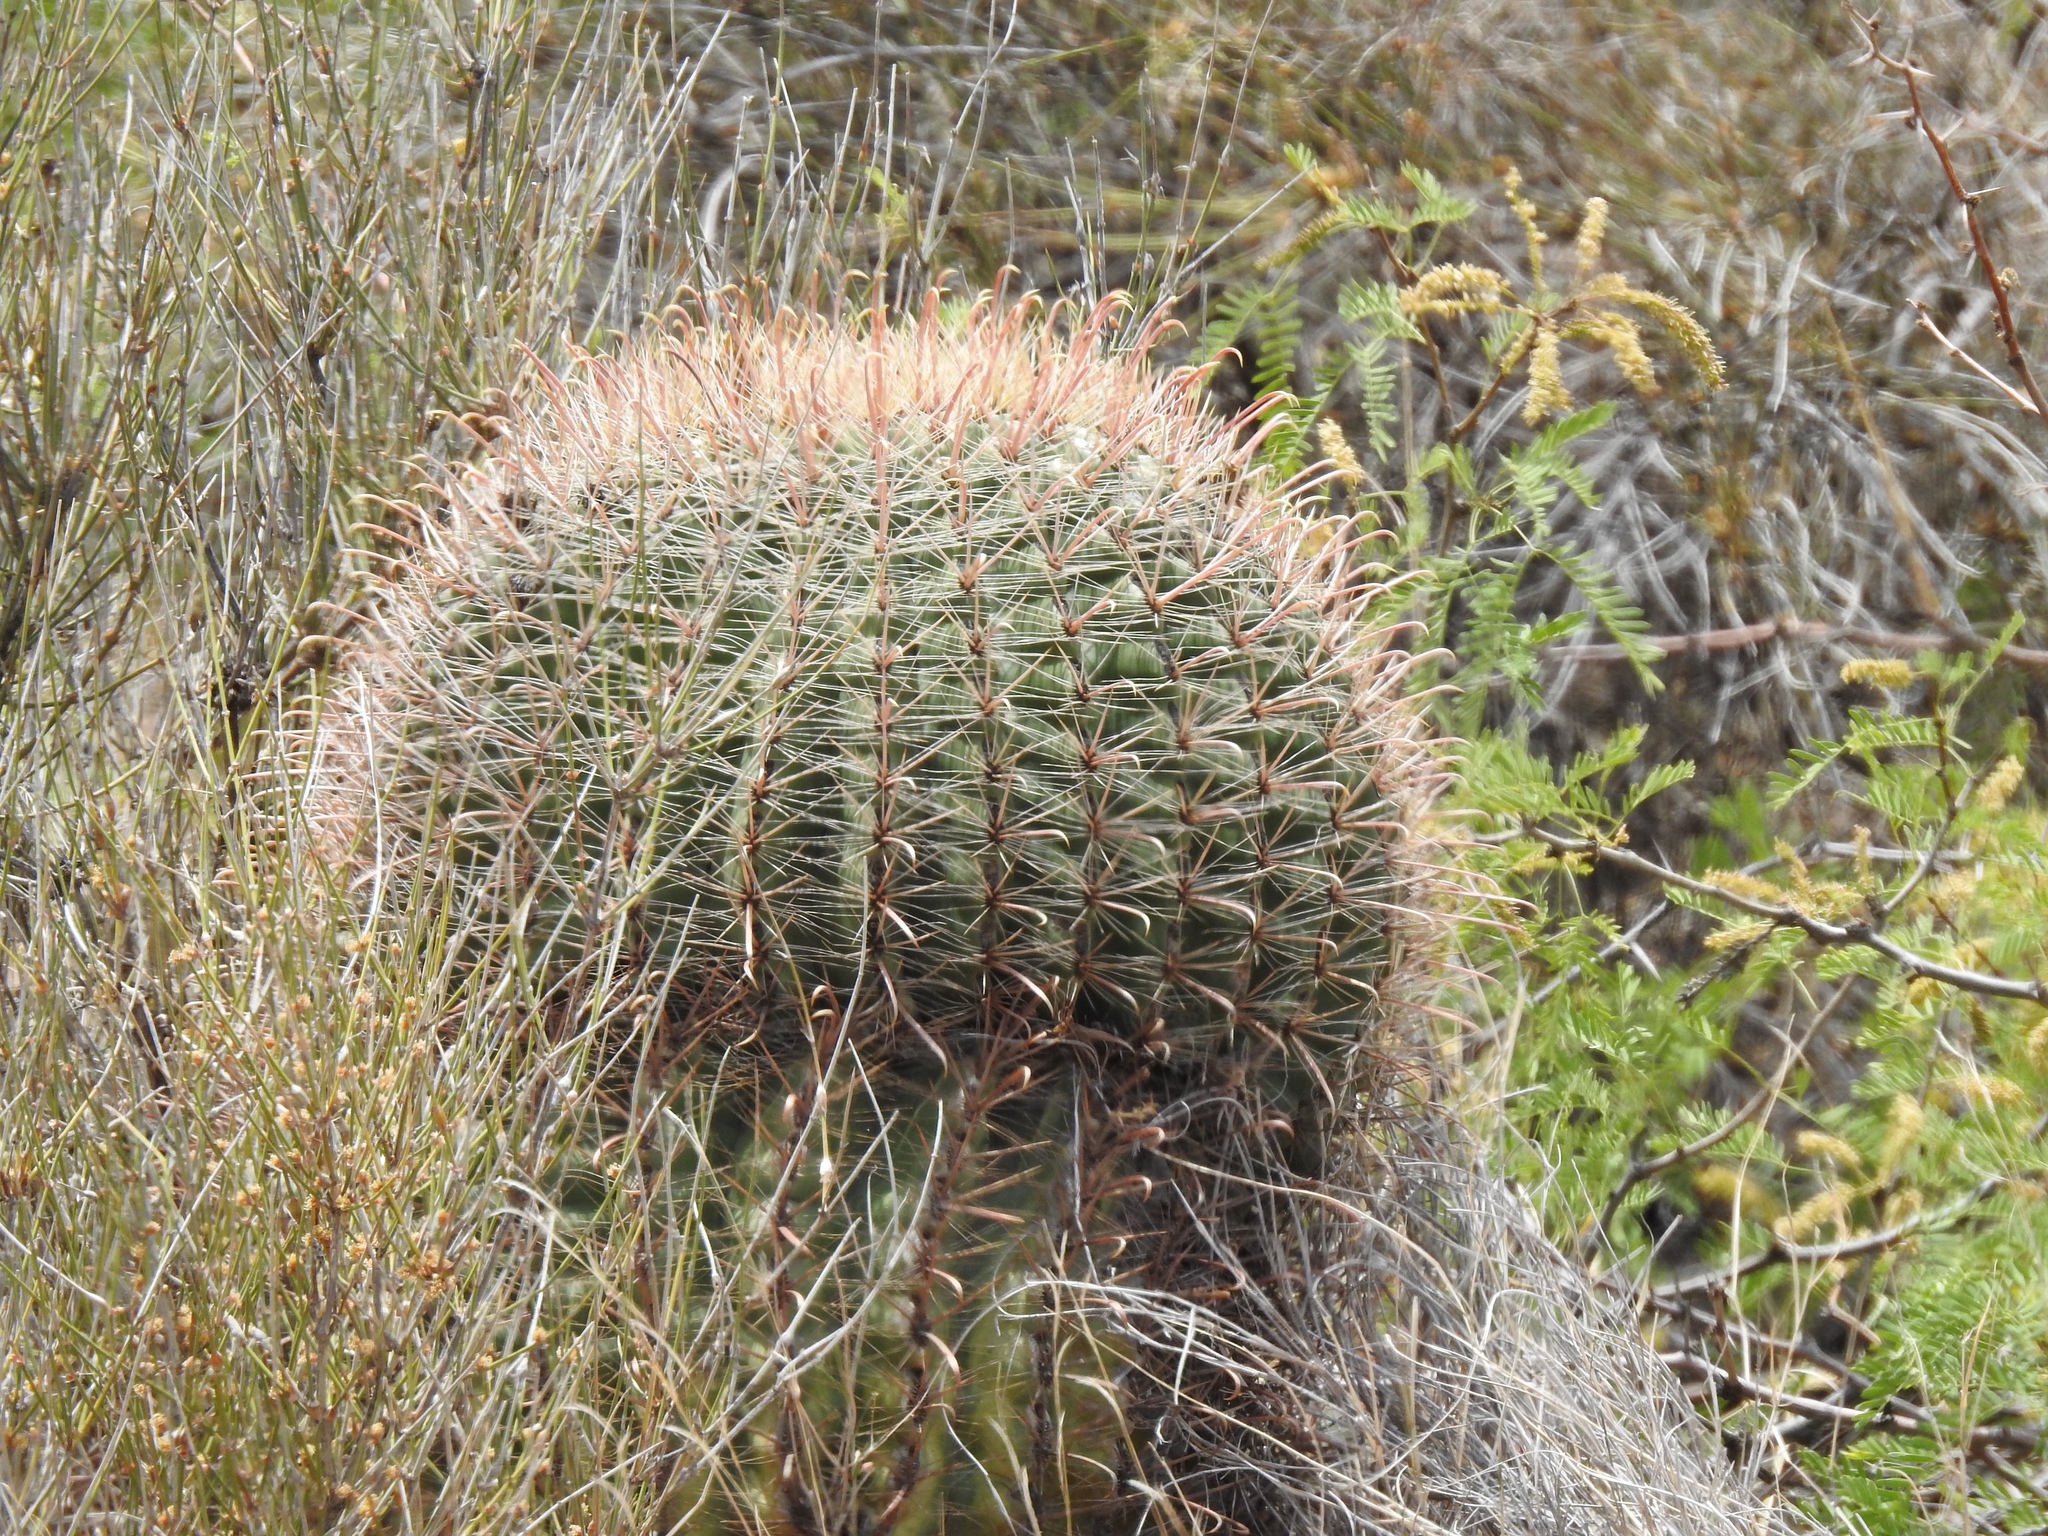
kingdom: Plantae
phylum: Tracheophyta
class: Magnoliopsida
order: Caryophyllales
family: Cactaceae
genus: Ferocactus
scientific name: Ferocactus wislizeni
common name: Candy barrel cactus
